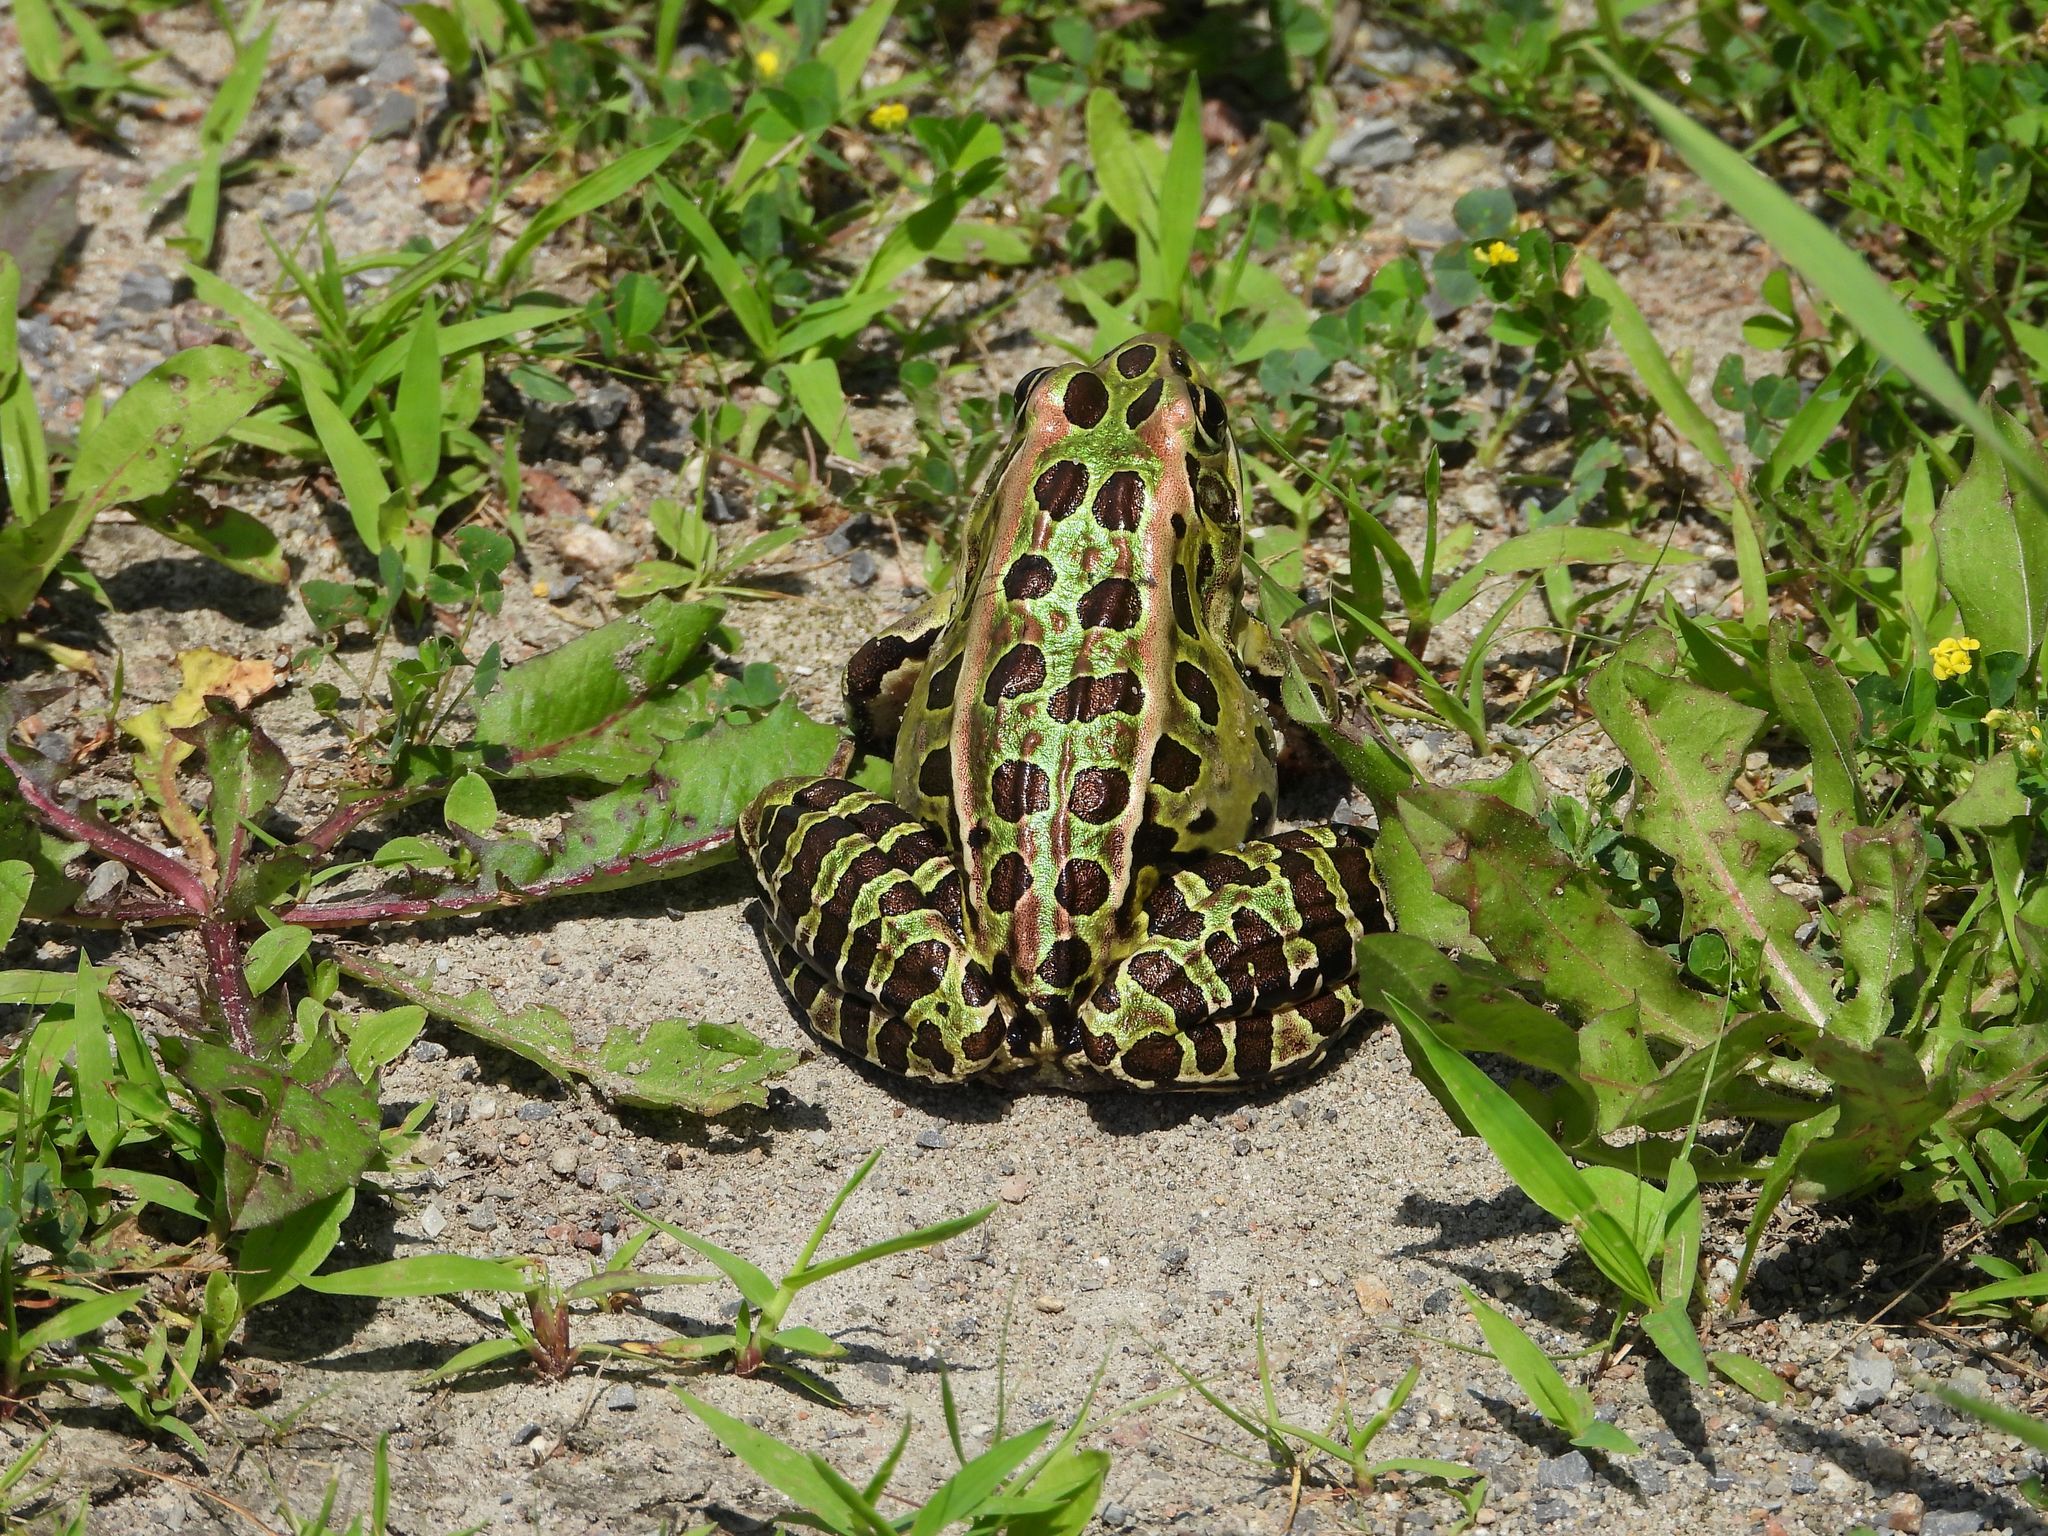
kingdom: Animalia
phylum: Chordata
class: Amphibia
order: Anura
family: Ranidae
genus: Lithobates
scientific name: Lithobates pipiens
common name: Northern leopard frog
